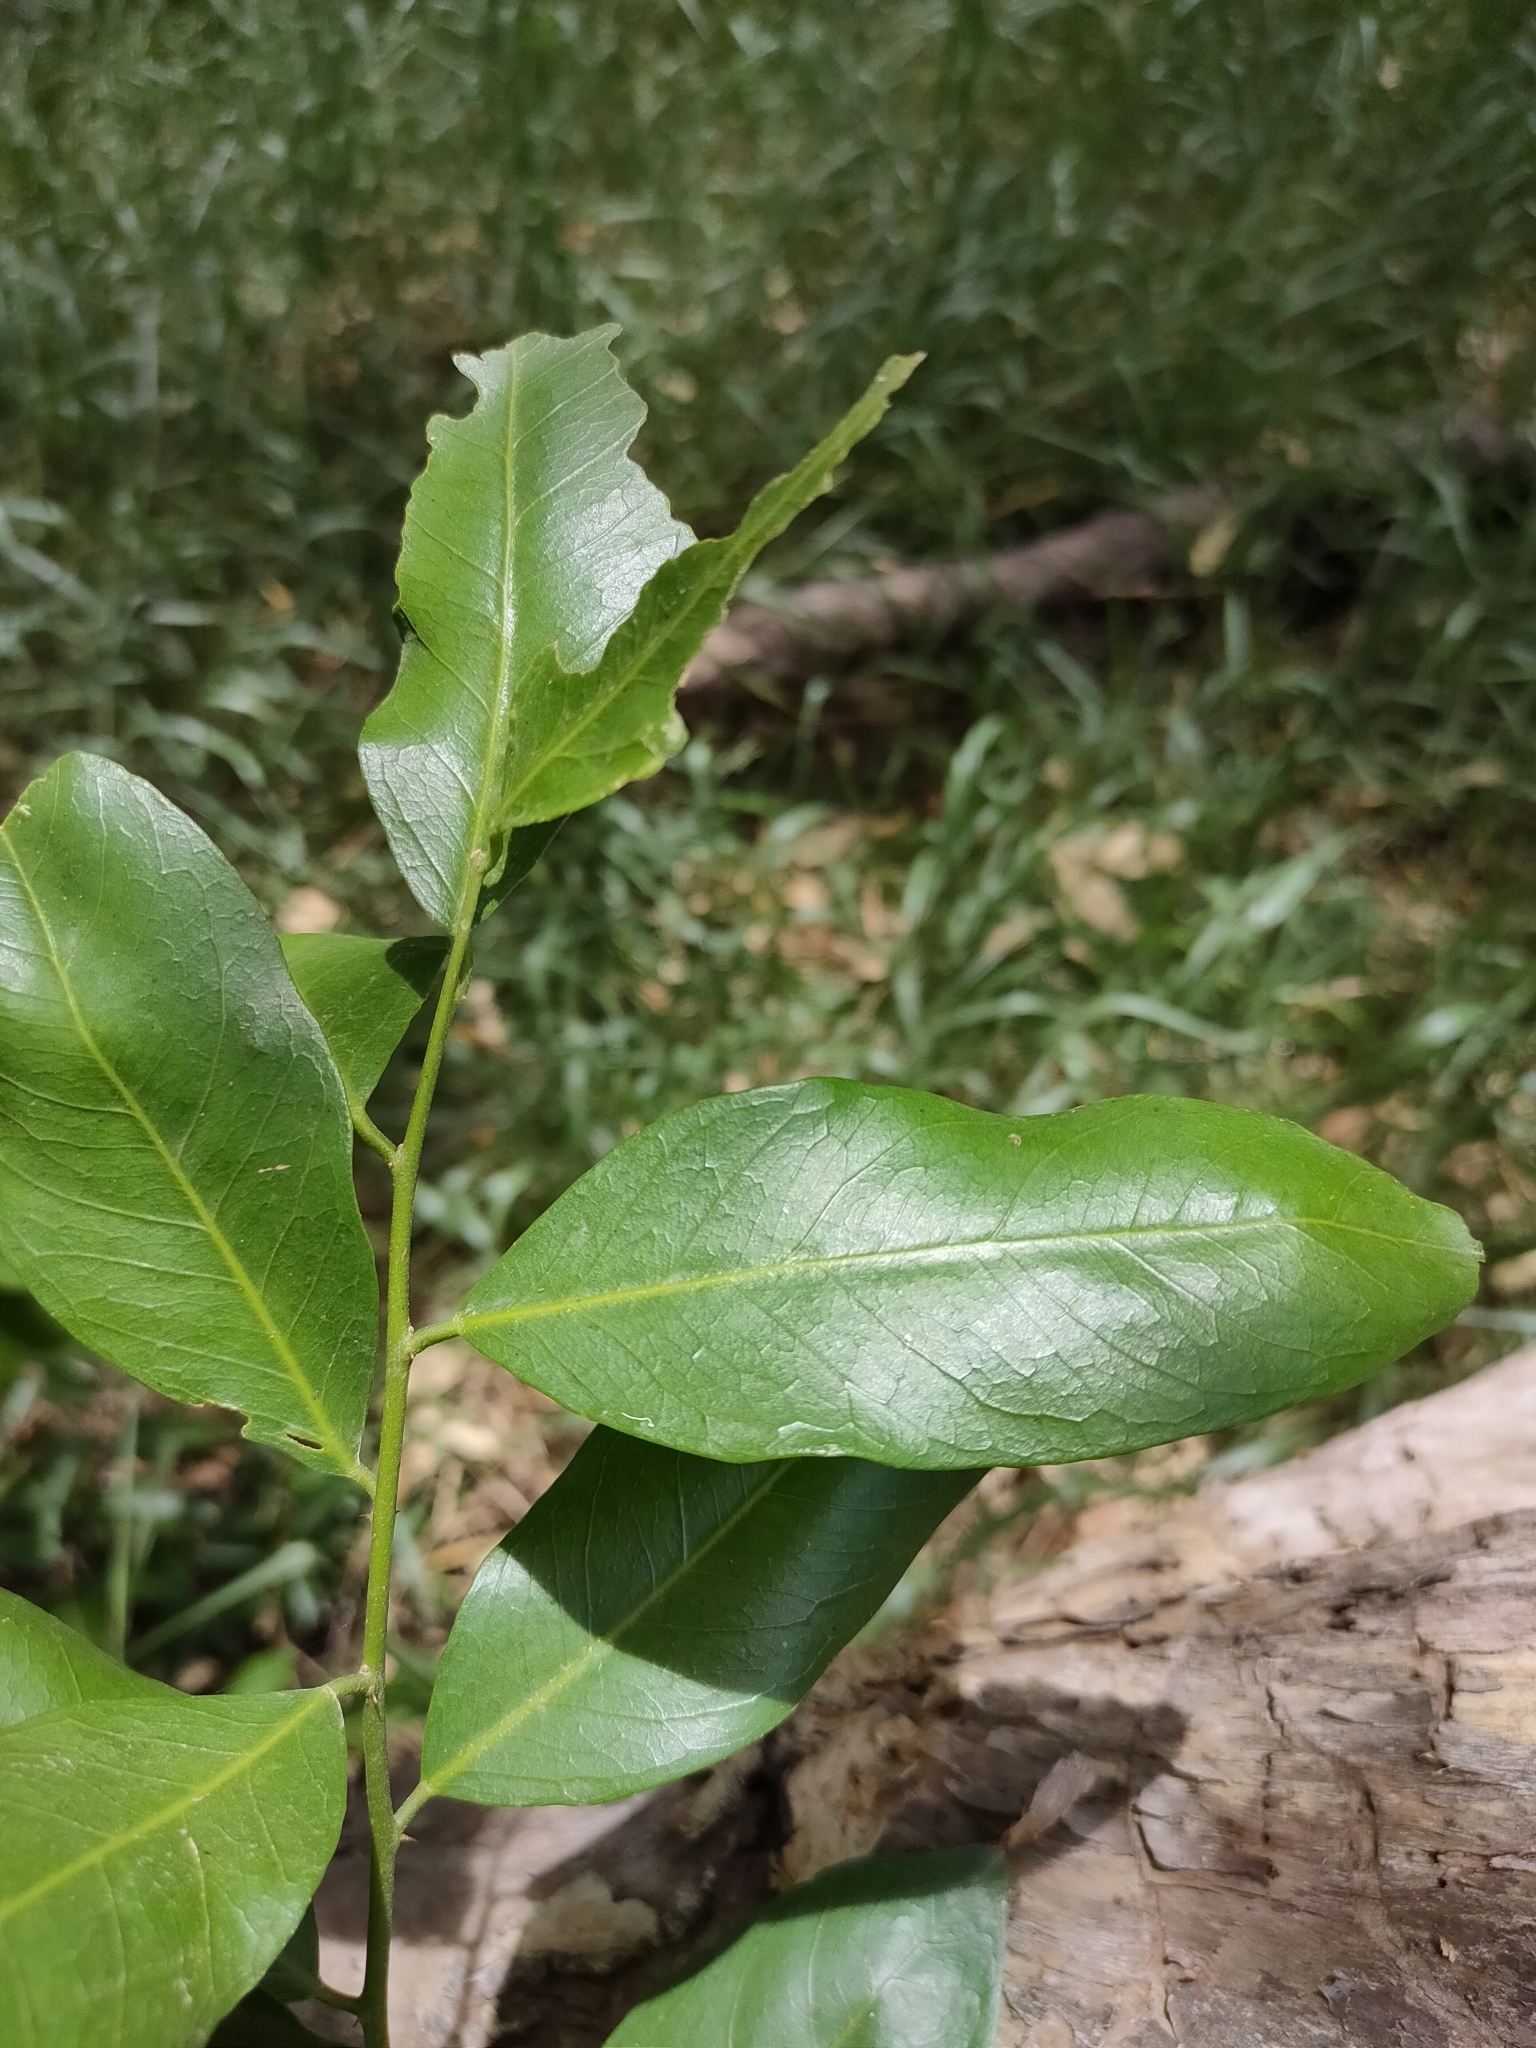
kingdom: Plantae
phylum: Tracheophyta
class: Magnoliopsida
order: Brassicales
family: Capparaceae
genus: Capparis
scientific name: Capparis arborea
